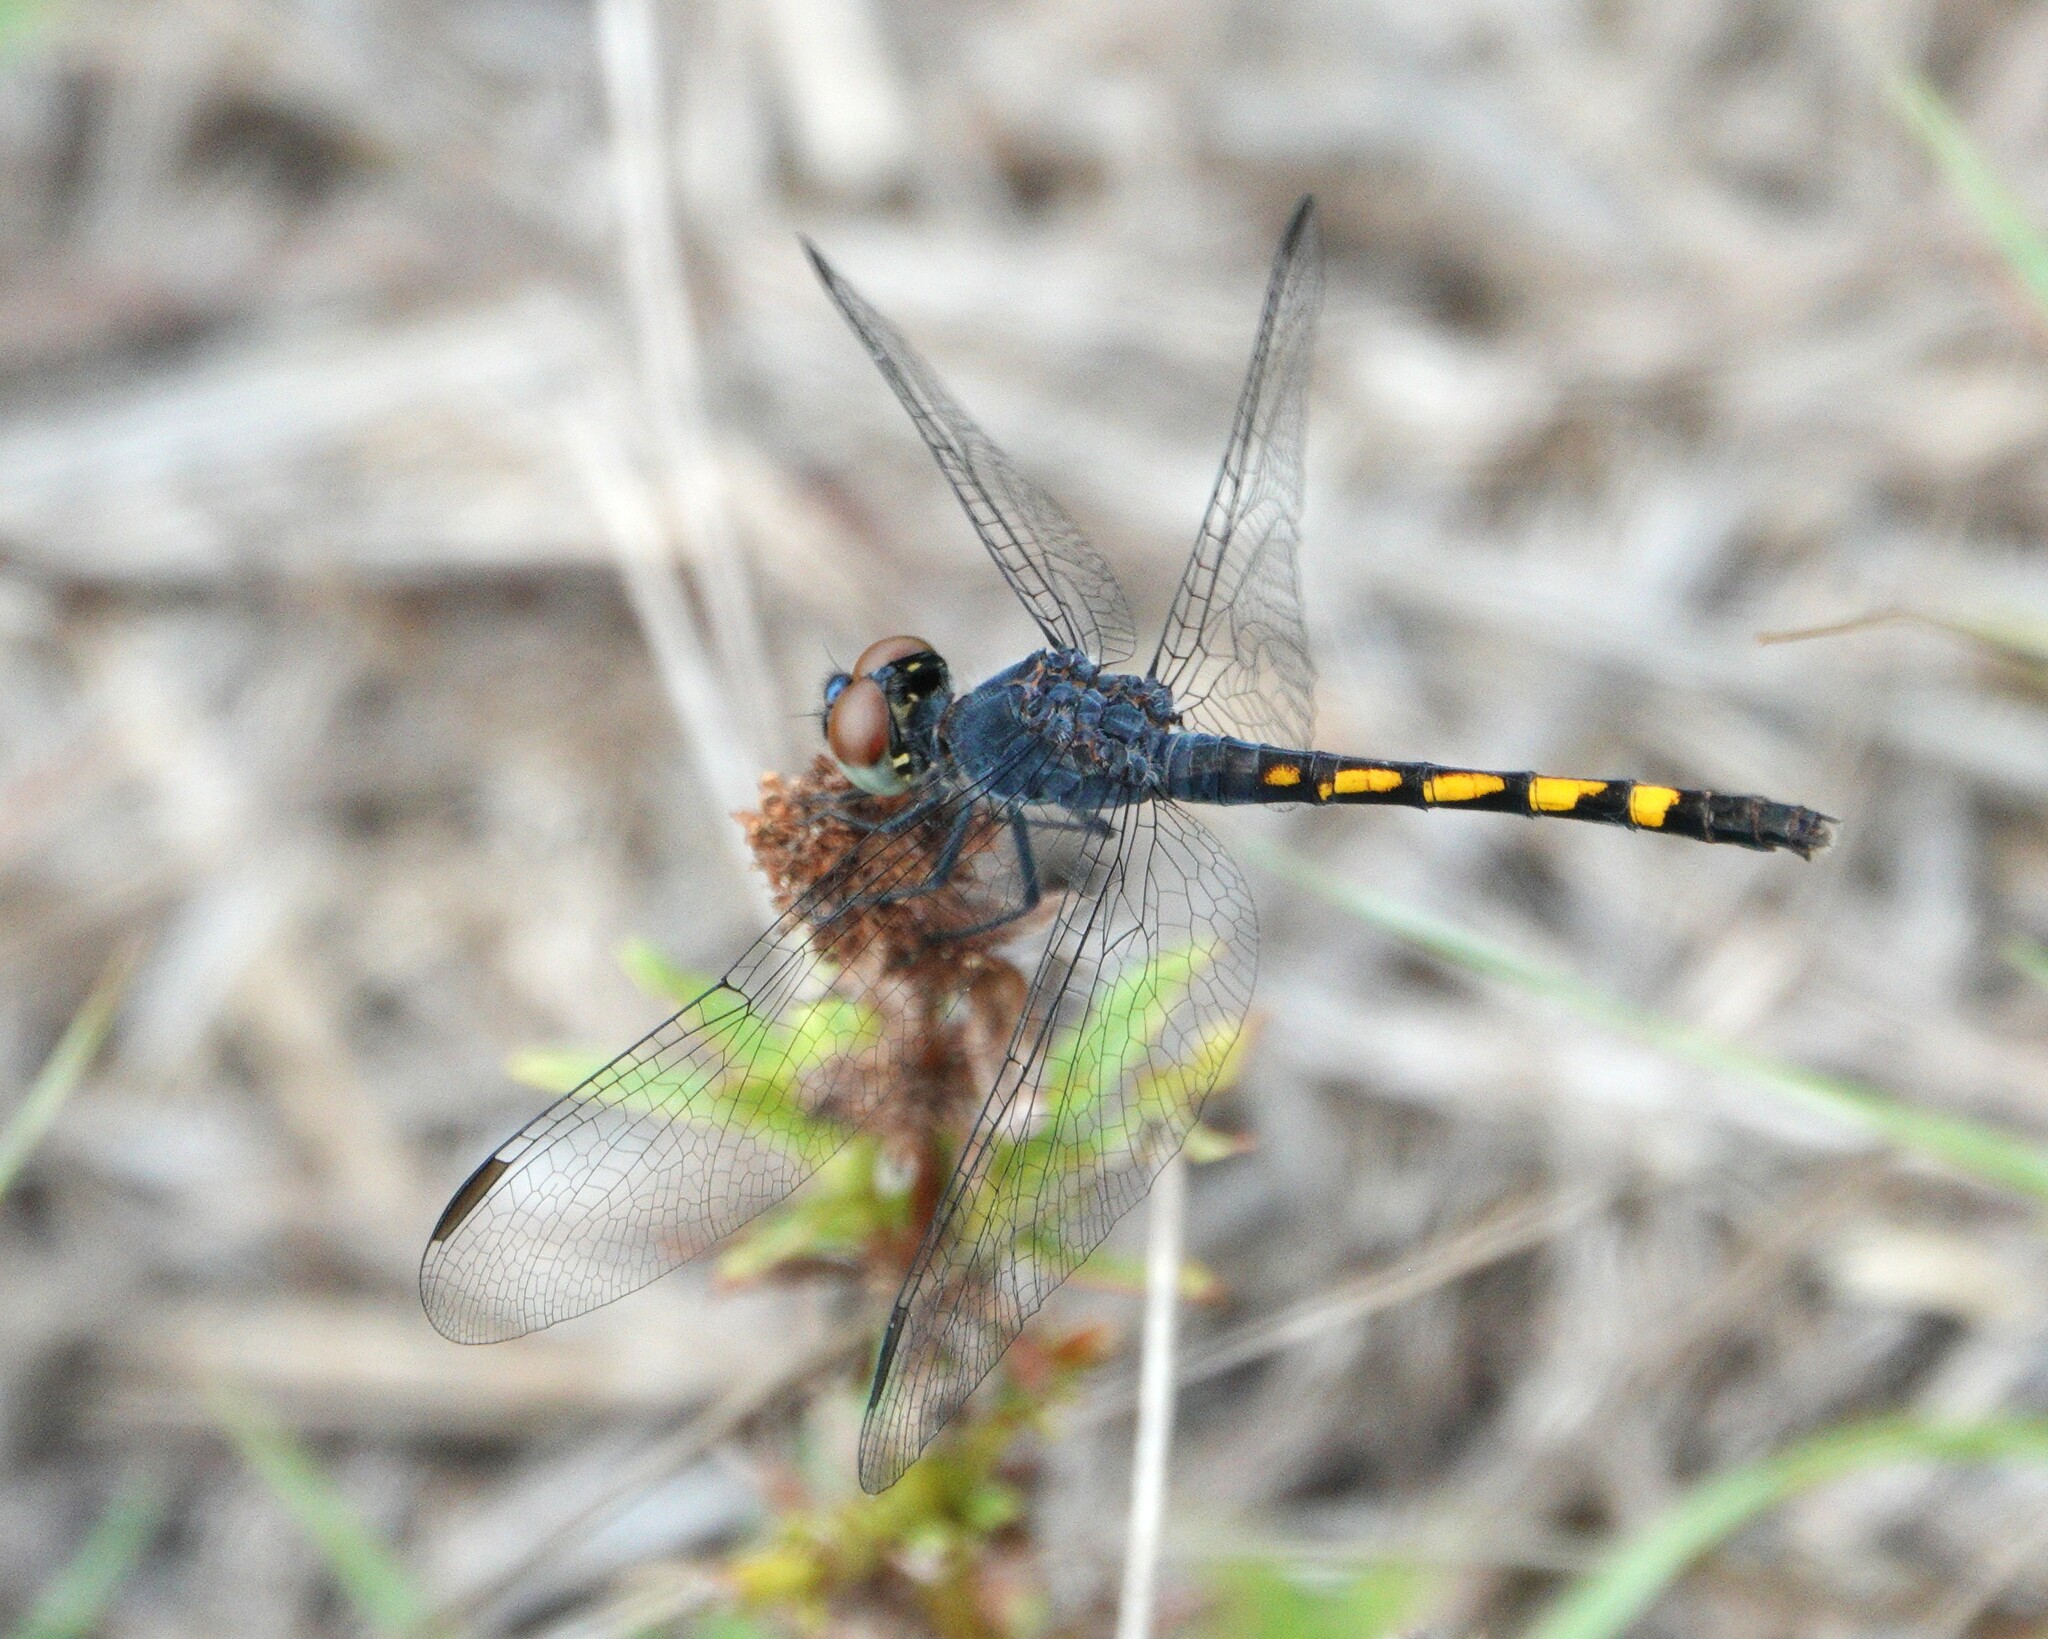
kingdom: Animalia
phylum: Arthropoda
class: Insecta
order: Odonata
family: Libellulidae
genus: Erythrodiplax
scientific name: Erythrodiplax berenice
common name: Seaside dragonlet
